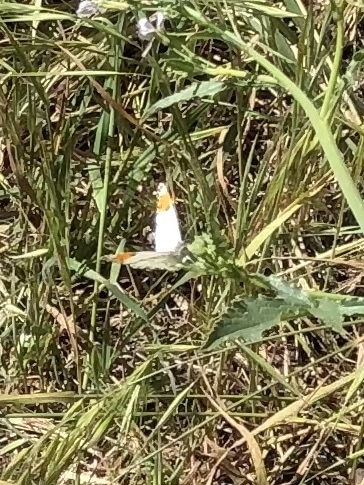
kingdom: Animalia
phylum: Arthropoda
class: Insecta
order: Lepidoptera
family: Pieridae
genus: Anthocharis
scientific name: Anthocharis sara
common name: Sara's orangetip
